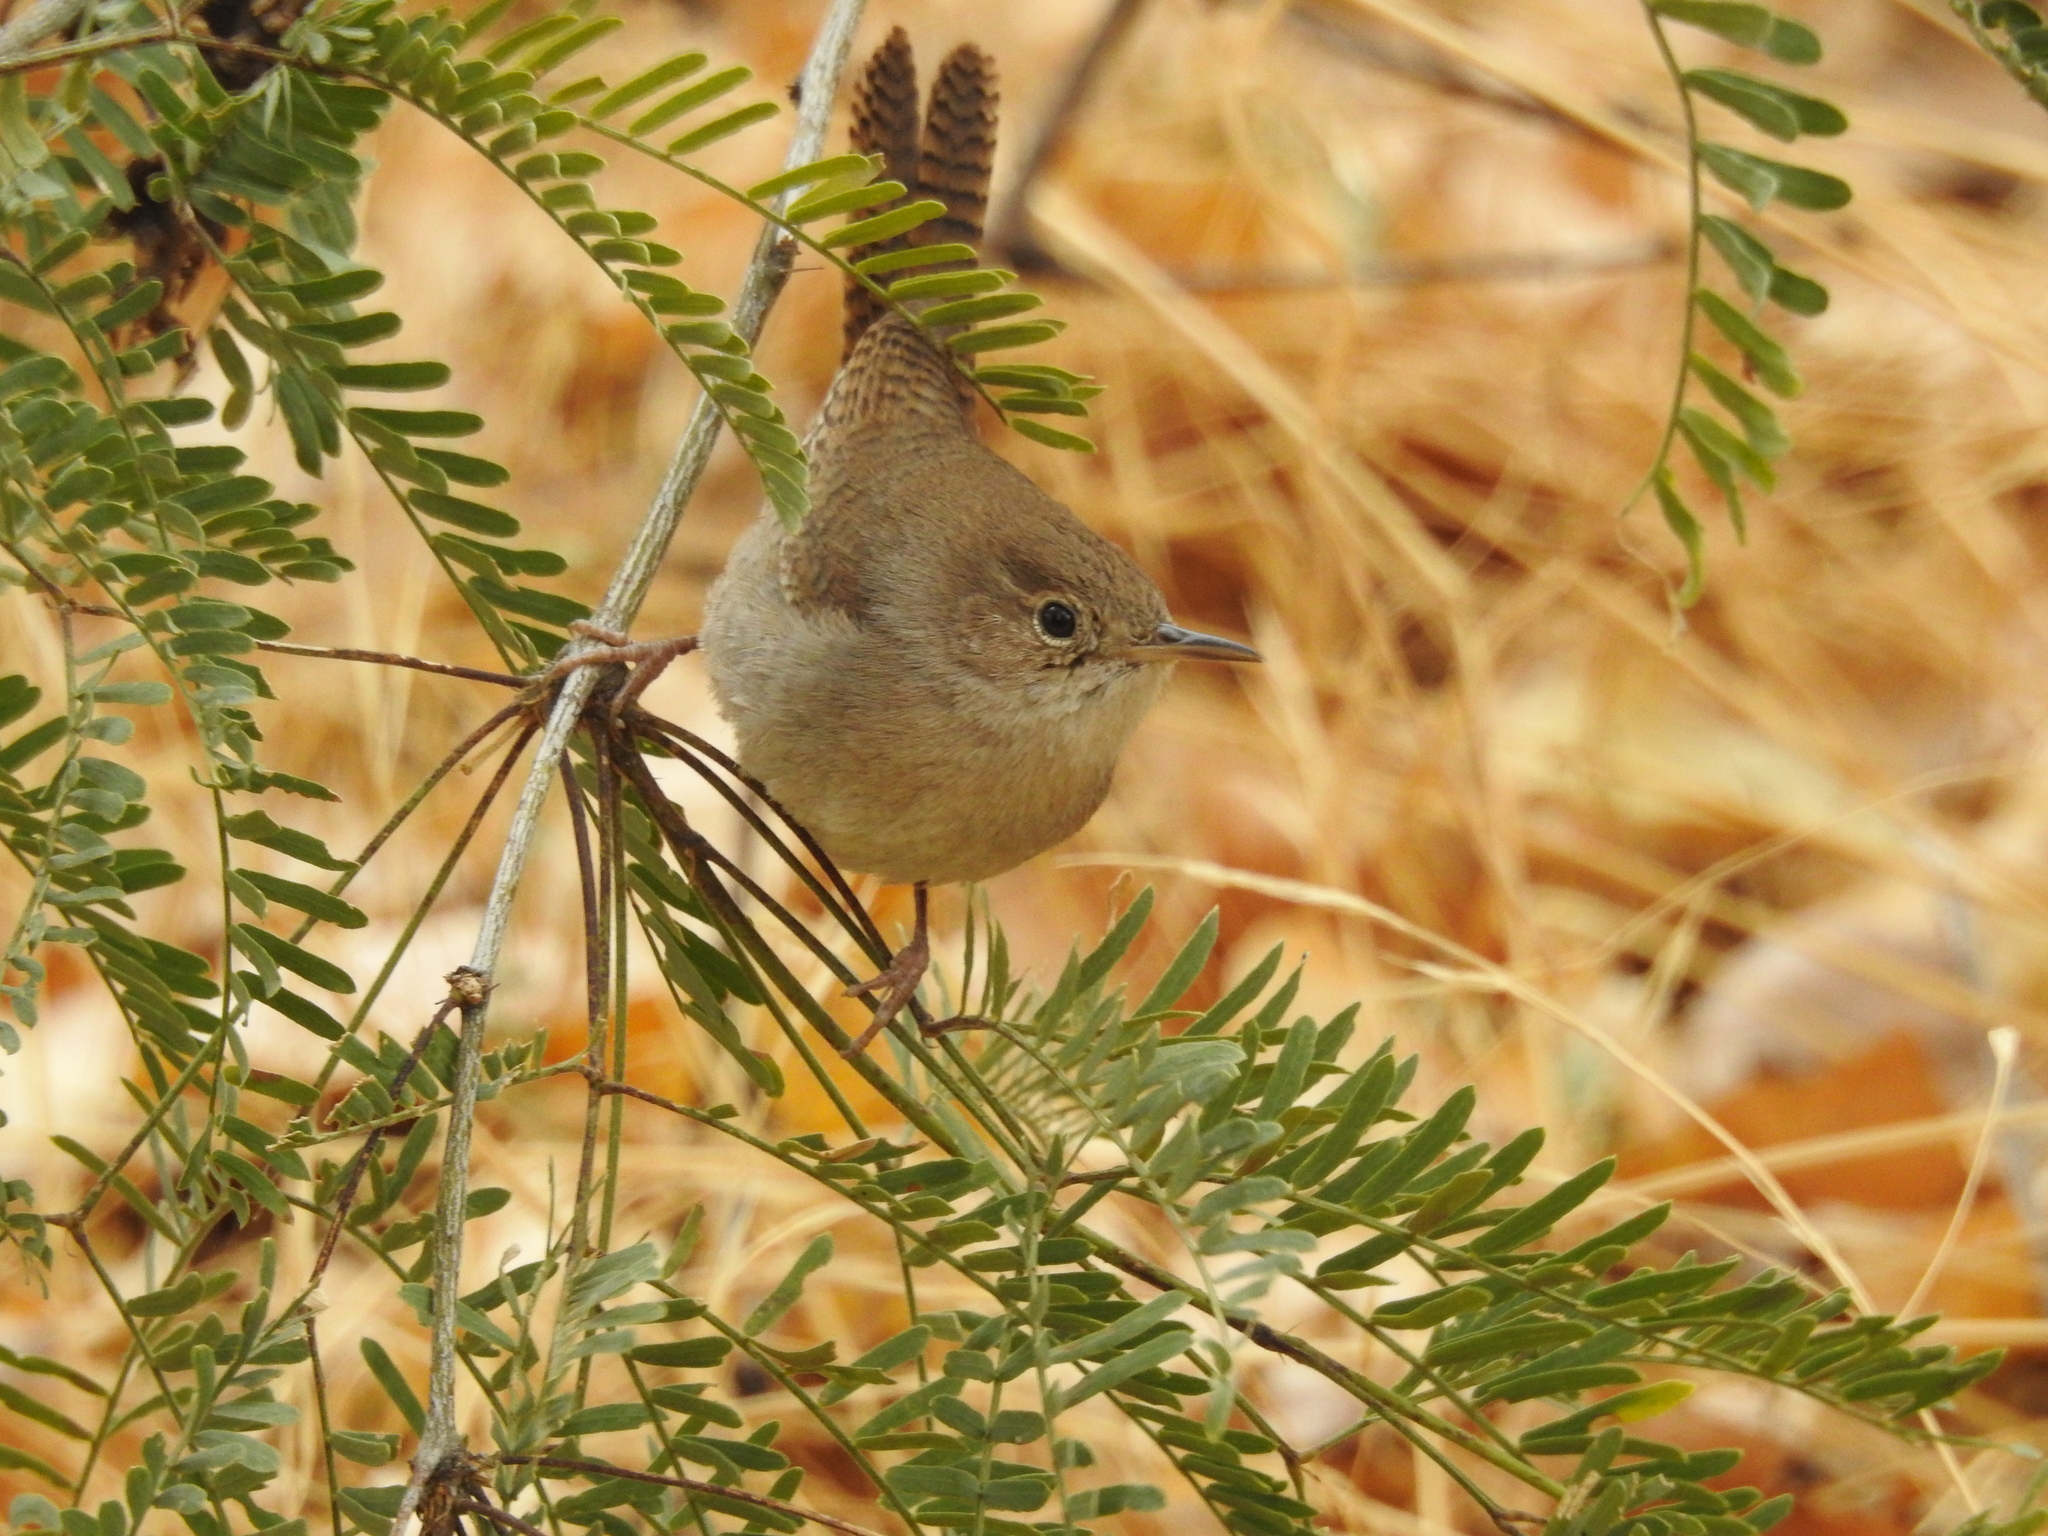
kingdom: Animalia
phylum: Chordata
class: Aves
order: Passeriformes
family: Troglodytidae
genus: Troglodytes
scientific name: Troglodytes aedon
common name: House wren
